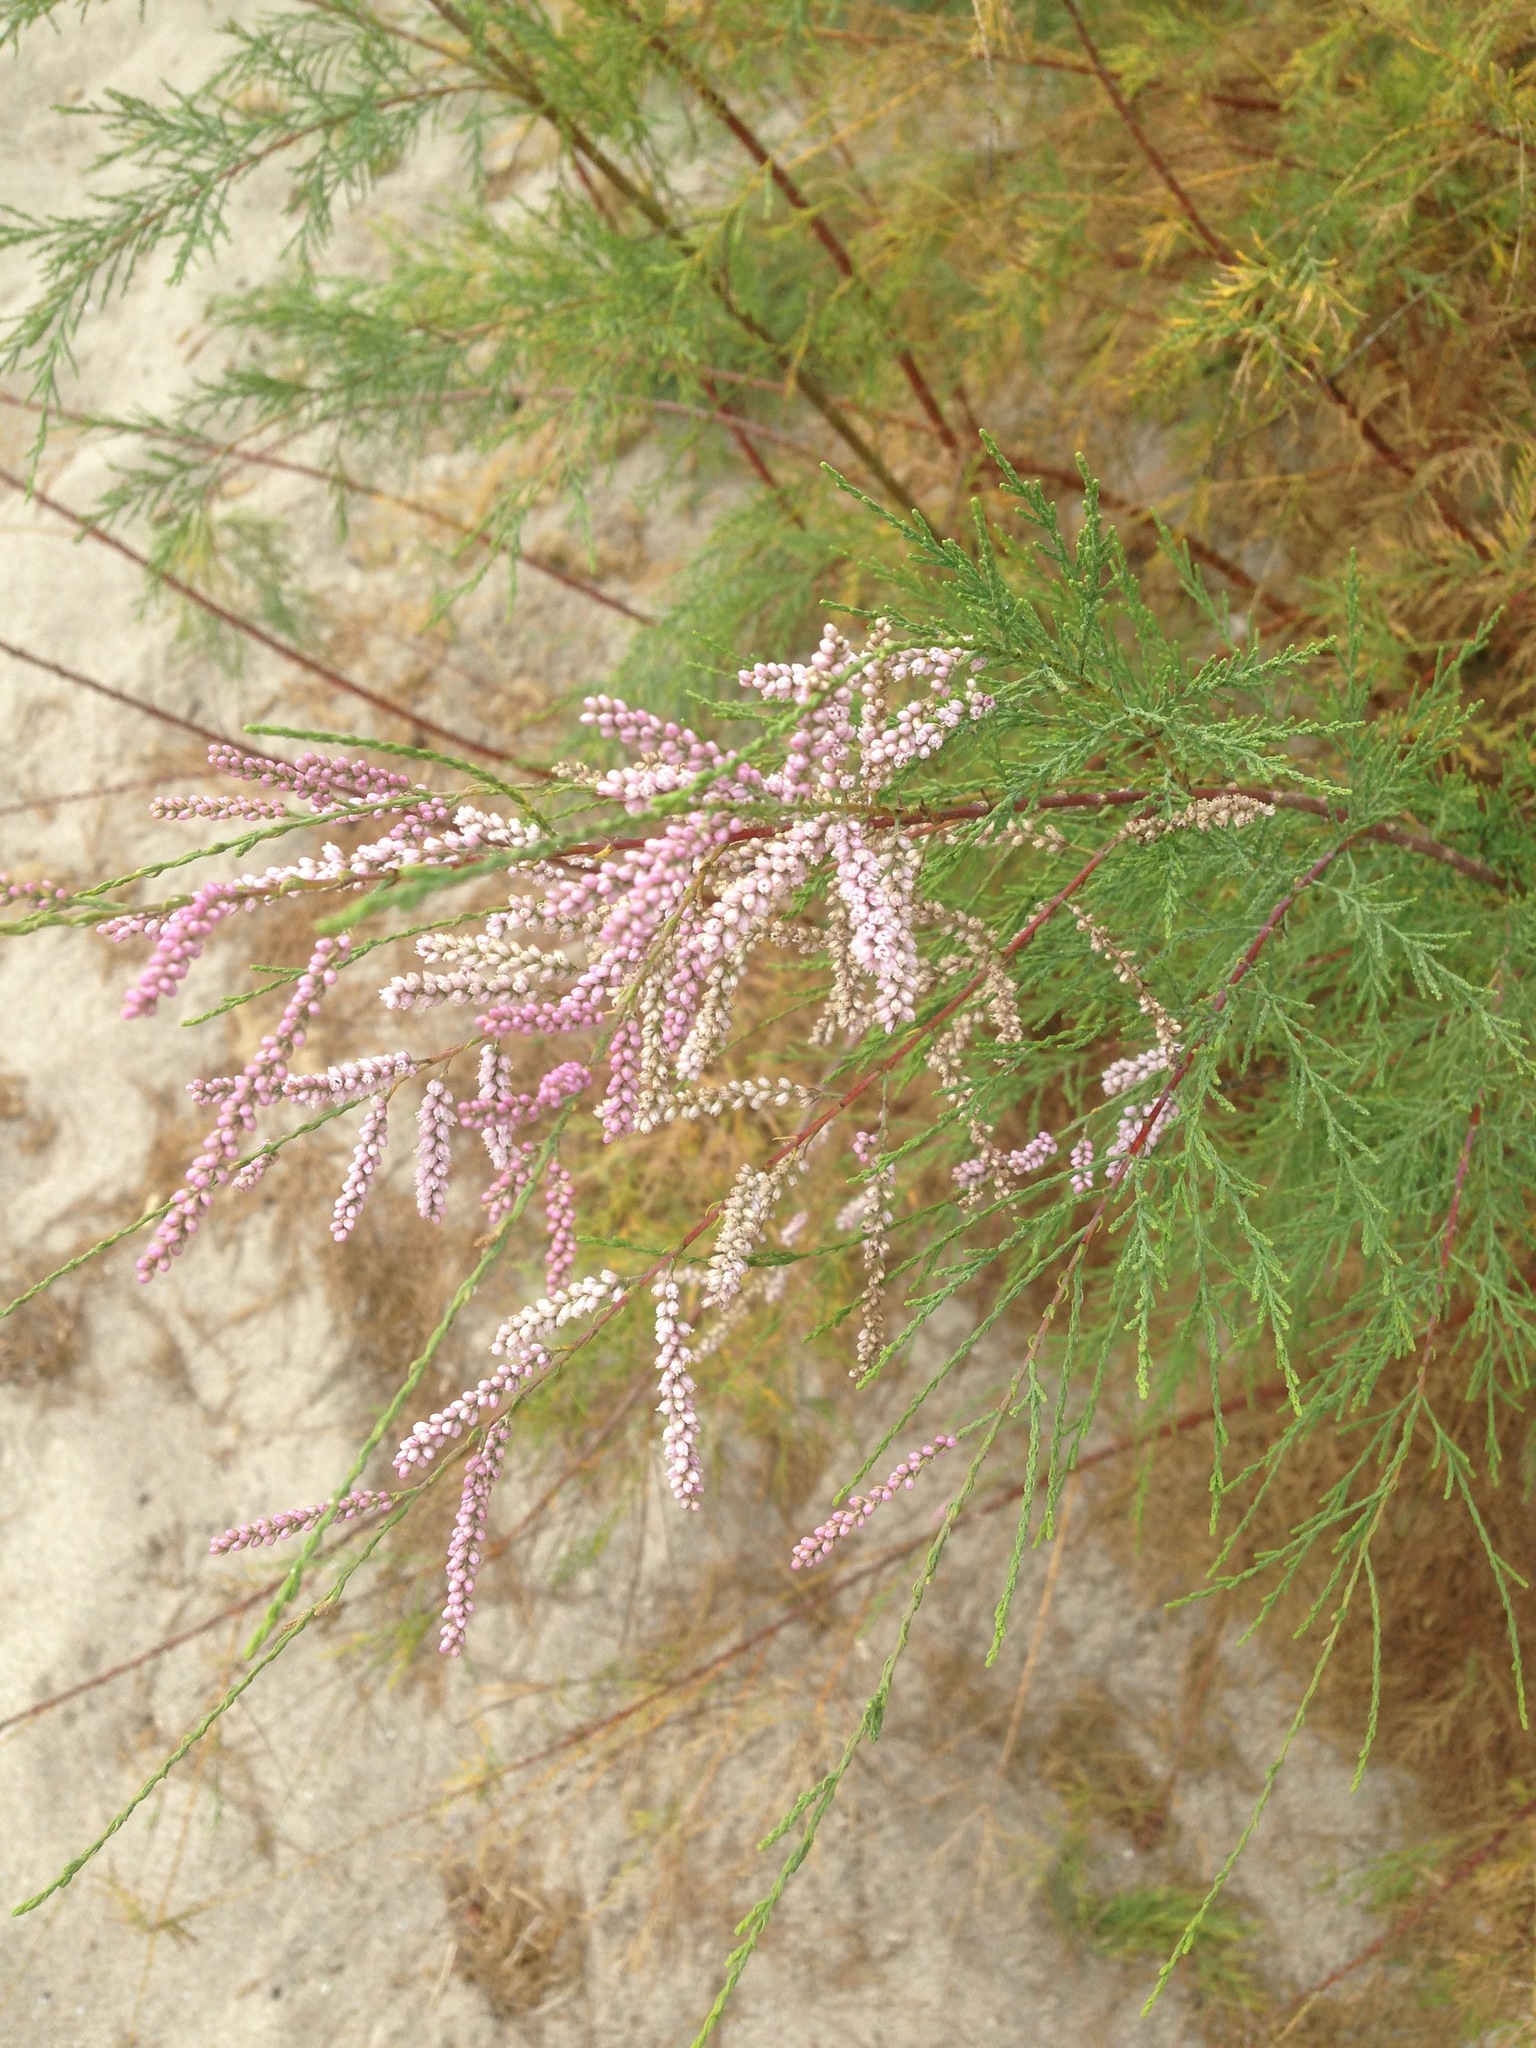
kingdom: Plantae
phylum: Tracheophyta
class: Magnoliopsida
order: Caryophyllales
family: Tamaricaceae
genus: Tamarix
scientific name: Tamarix ramosissima
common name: Pink tamarisk
